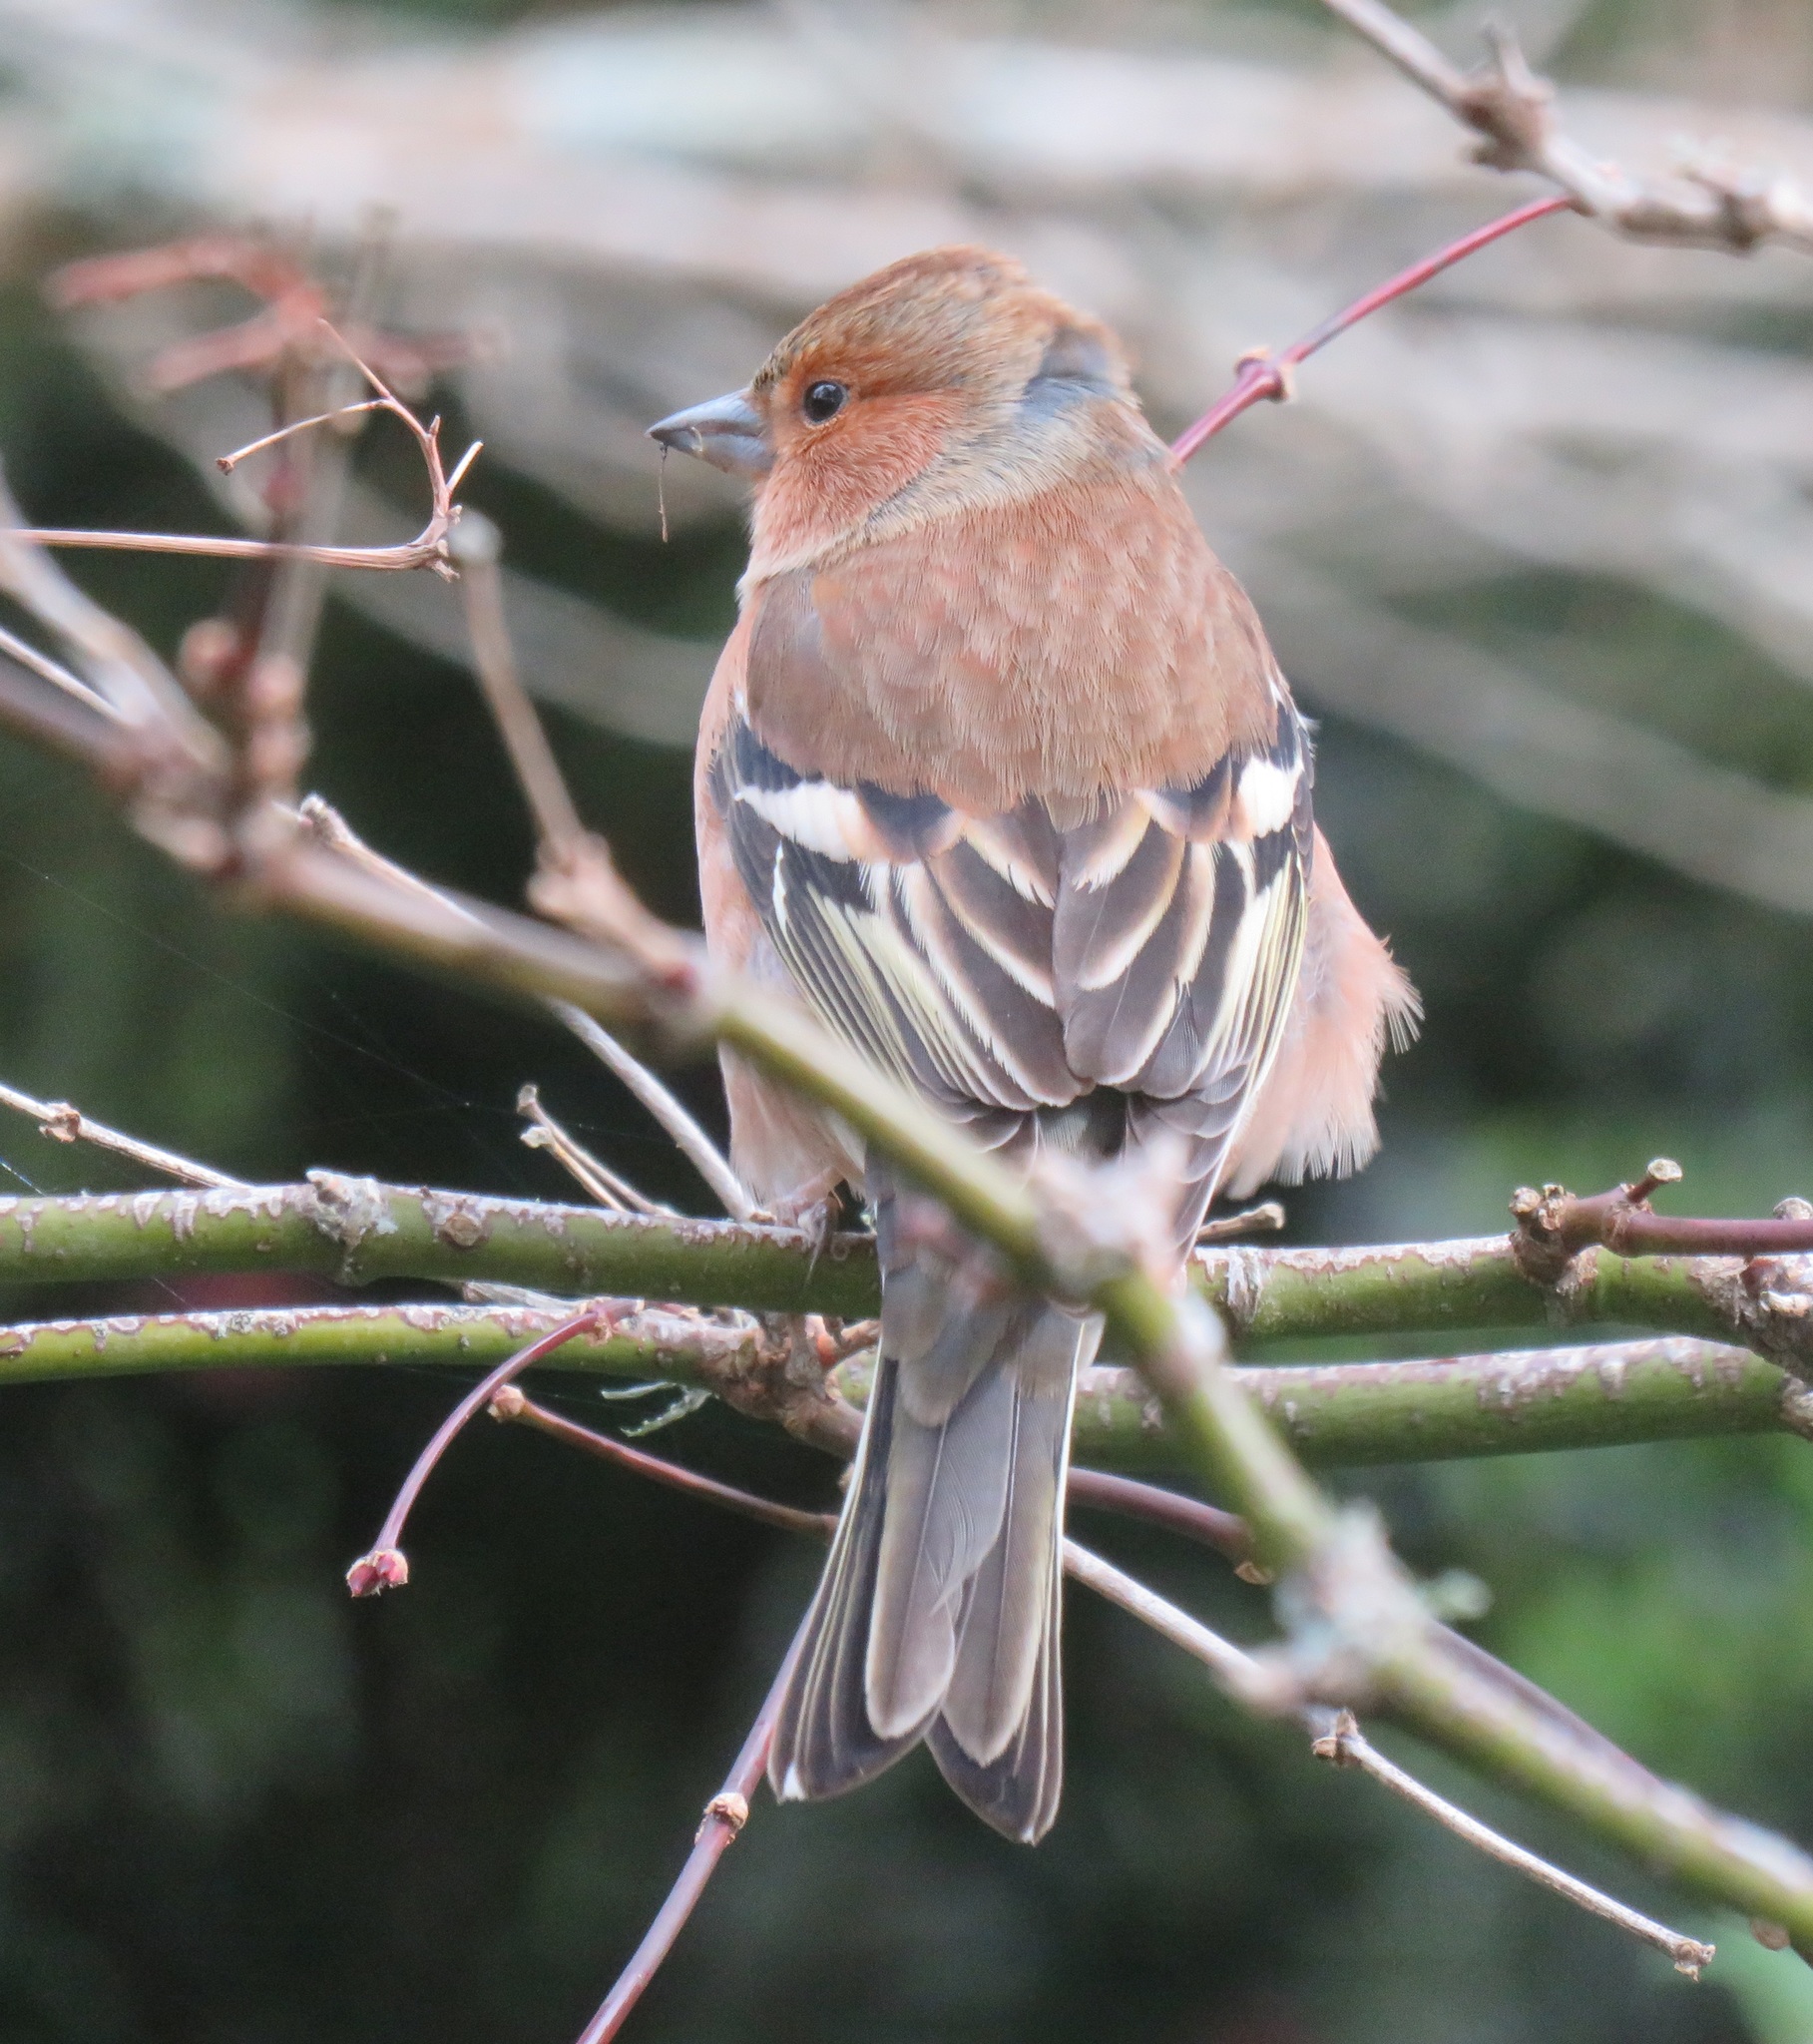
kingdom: Animalia
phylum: Chordata
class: Aves
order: Passeriformes
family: Fringillidae
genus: Fringilla
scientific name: Fringilla coelebs
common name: Common chaffinch
